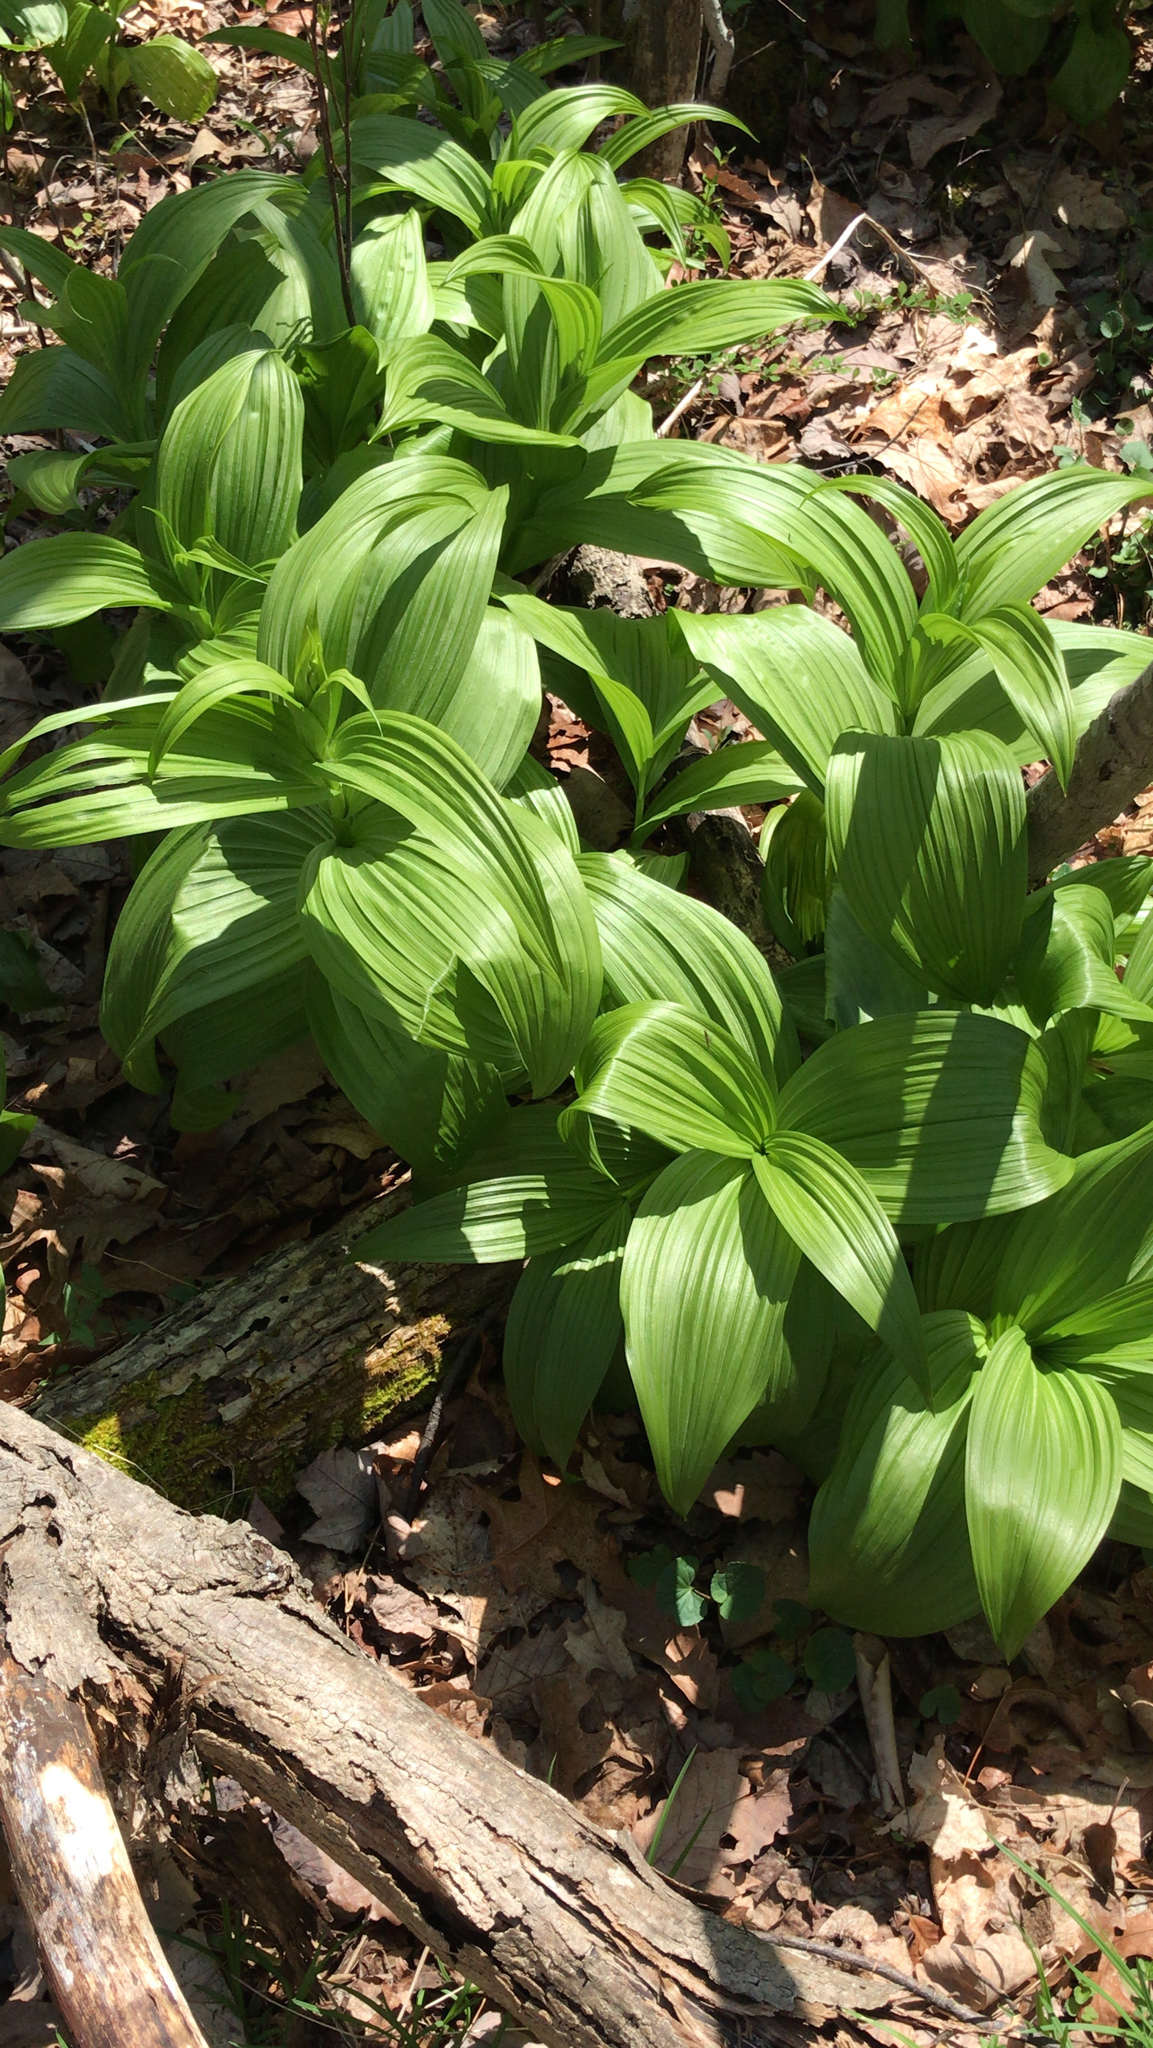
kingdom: Plantae
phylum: Tracheophyta
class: Liliopsida
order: Liliales
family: Melanthiaceae
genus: Veratrum
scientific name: Veratrum viride
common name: American false hellebore
